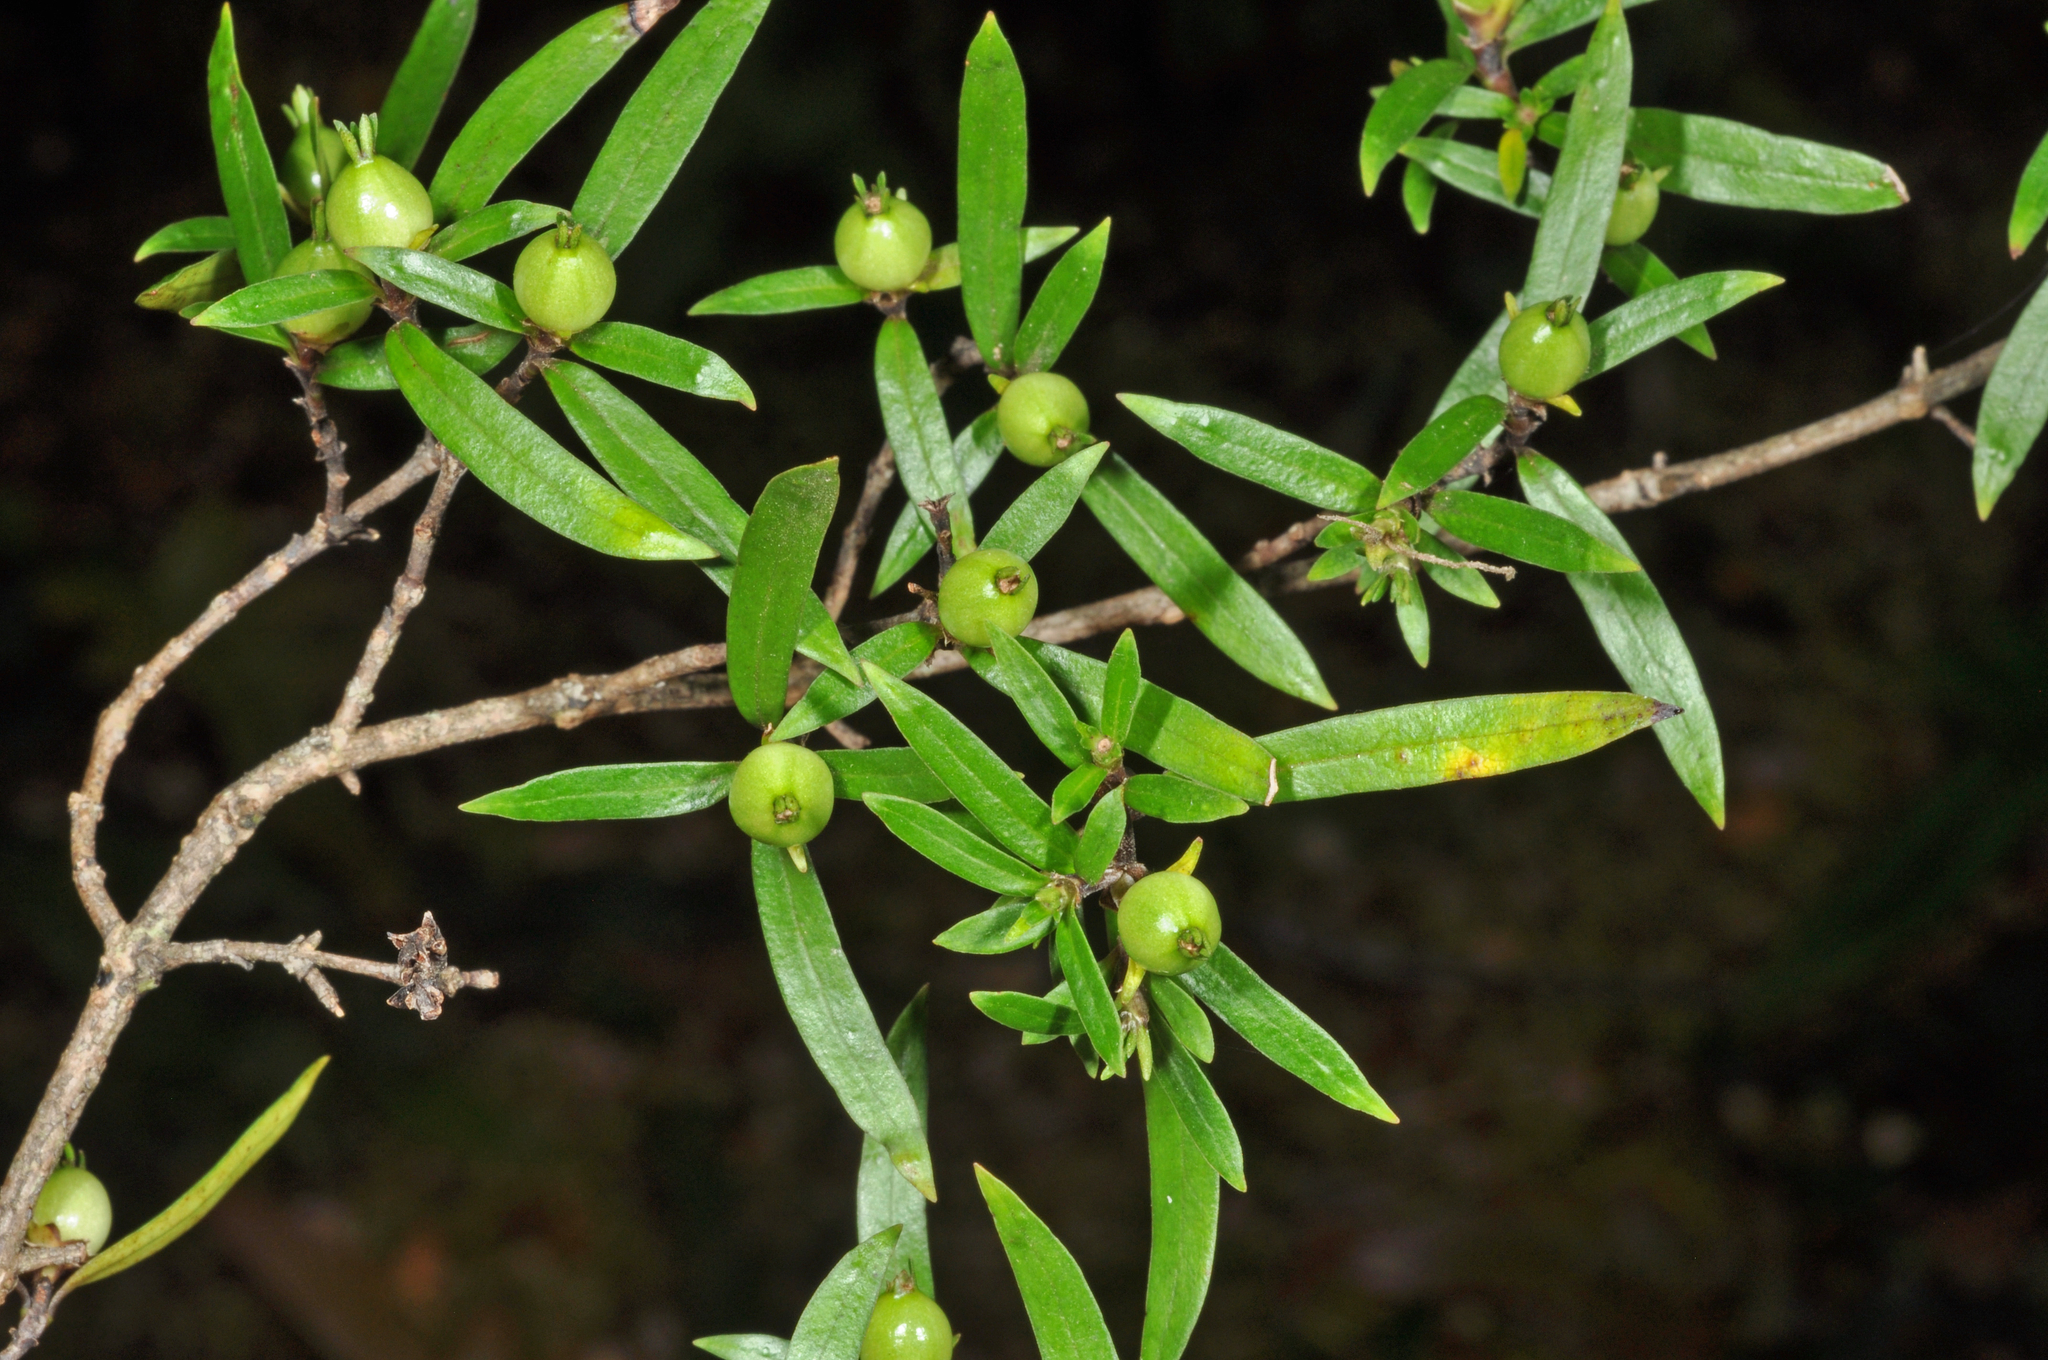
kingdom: Plantae
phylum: Tracheophyta
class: Magnoliopsida
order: Gentianales
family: Rubiaceae
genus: Coprosma
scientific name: Coprosma linariifolia
